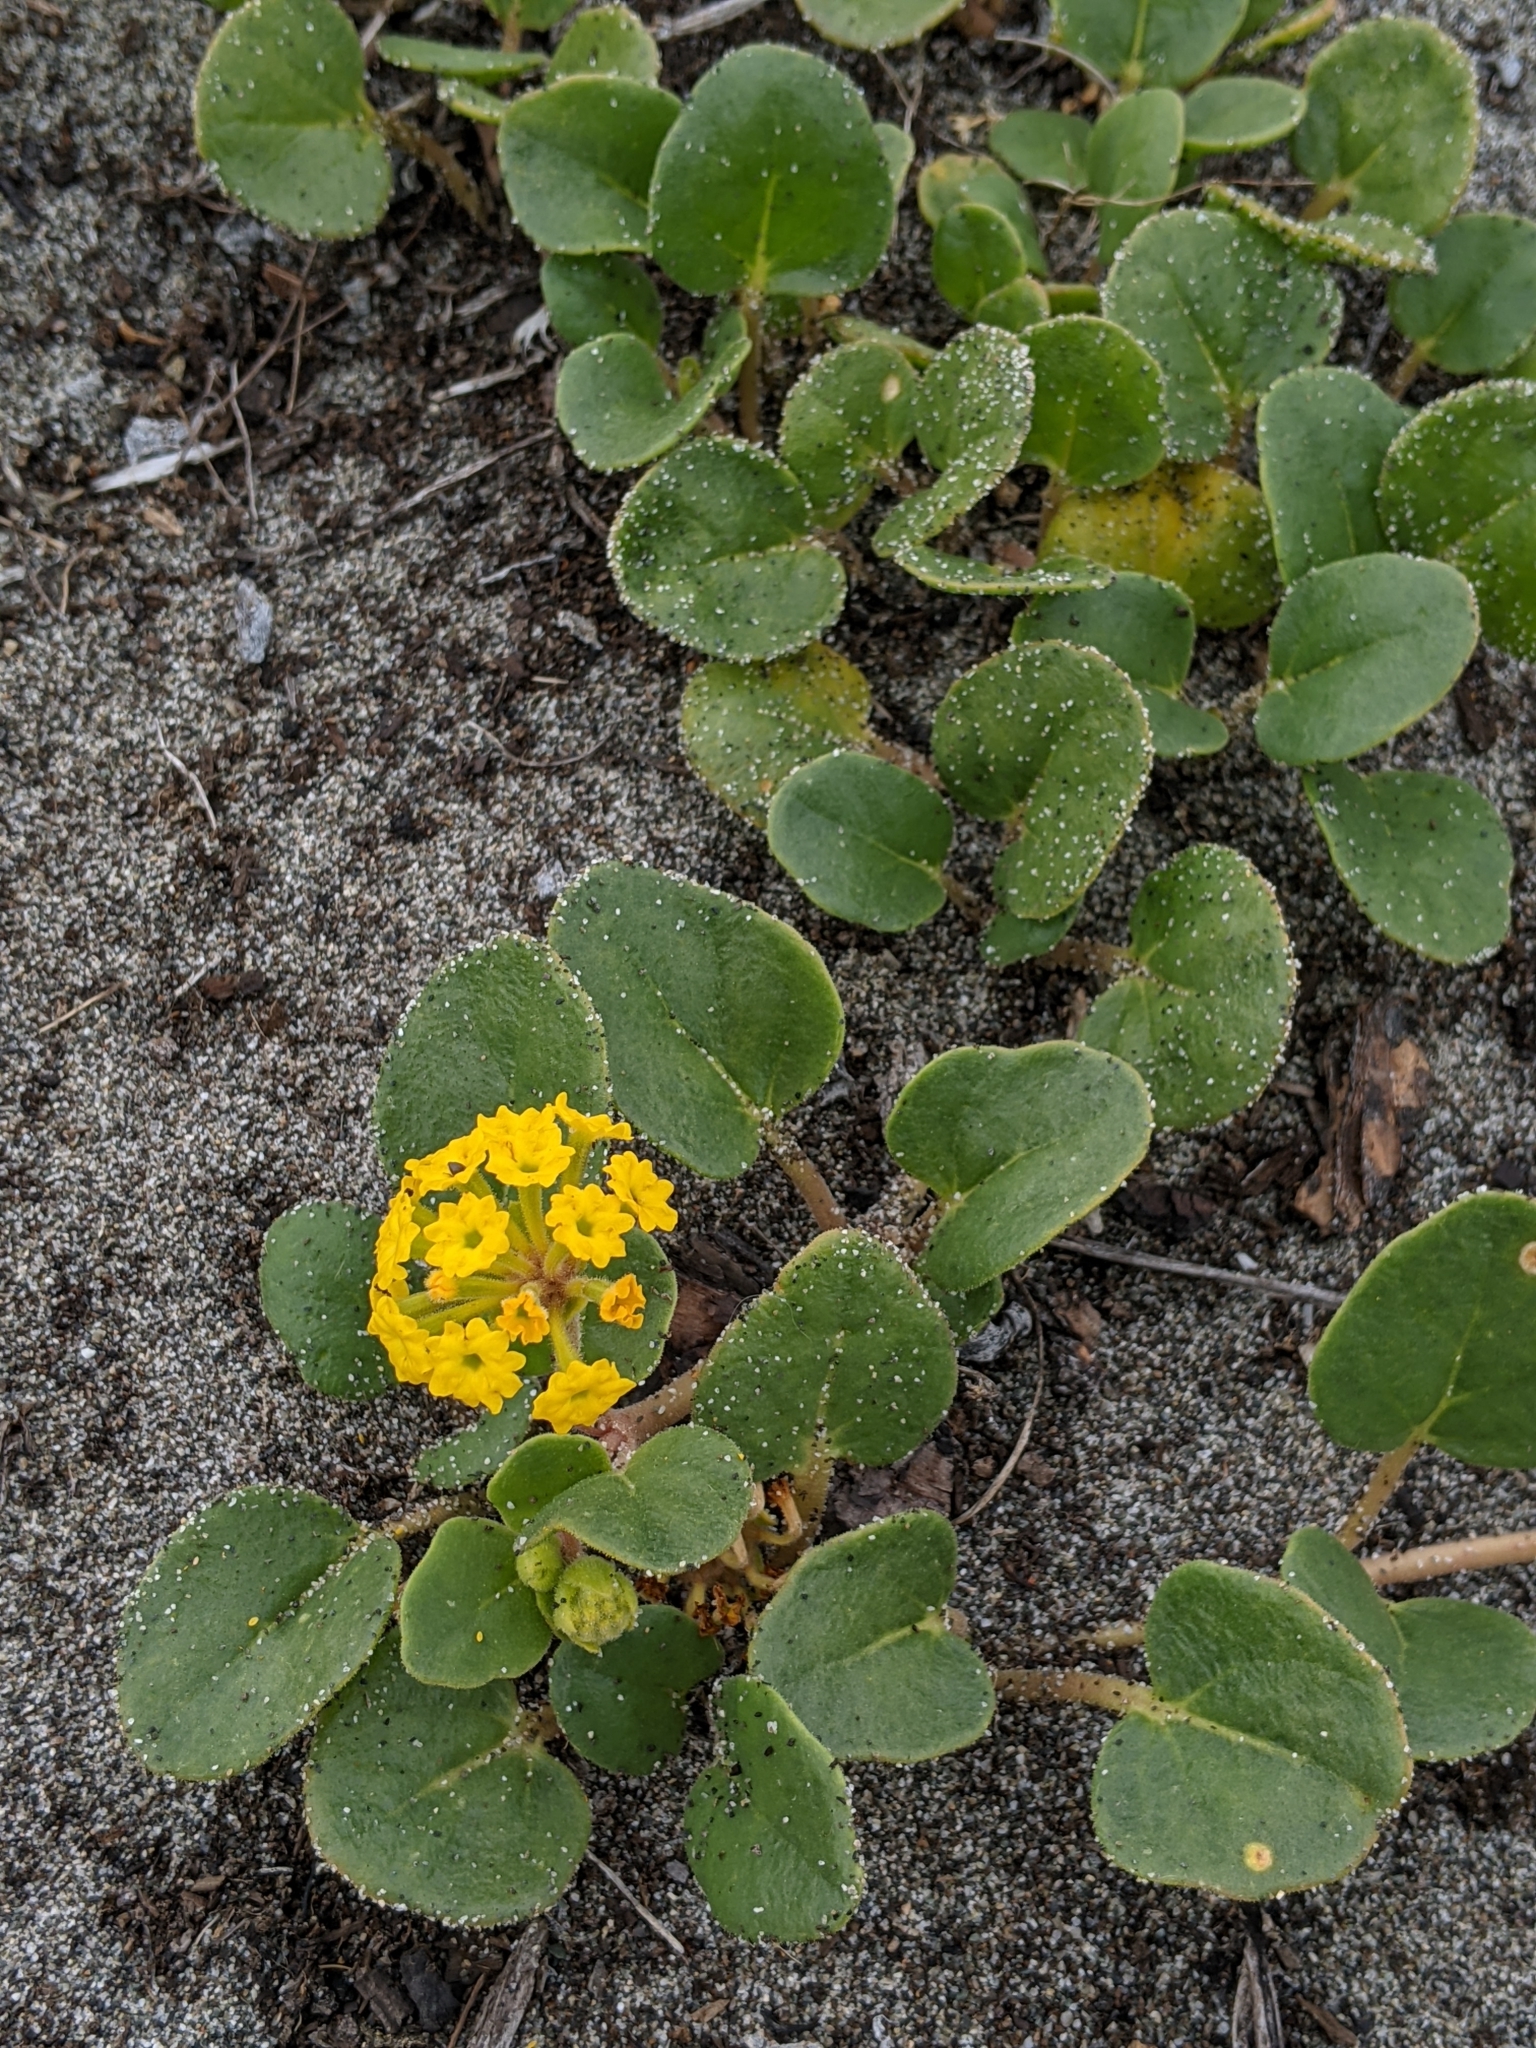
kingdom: Plantae
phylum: Tracheophyta
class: Magnoliopsida
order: Caryophyllales
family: Nyctaginaceae
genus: Abronia
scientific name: Abronia latifolia
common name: Yellow sand-verbena
